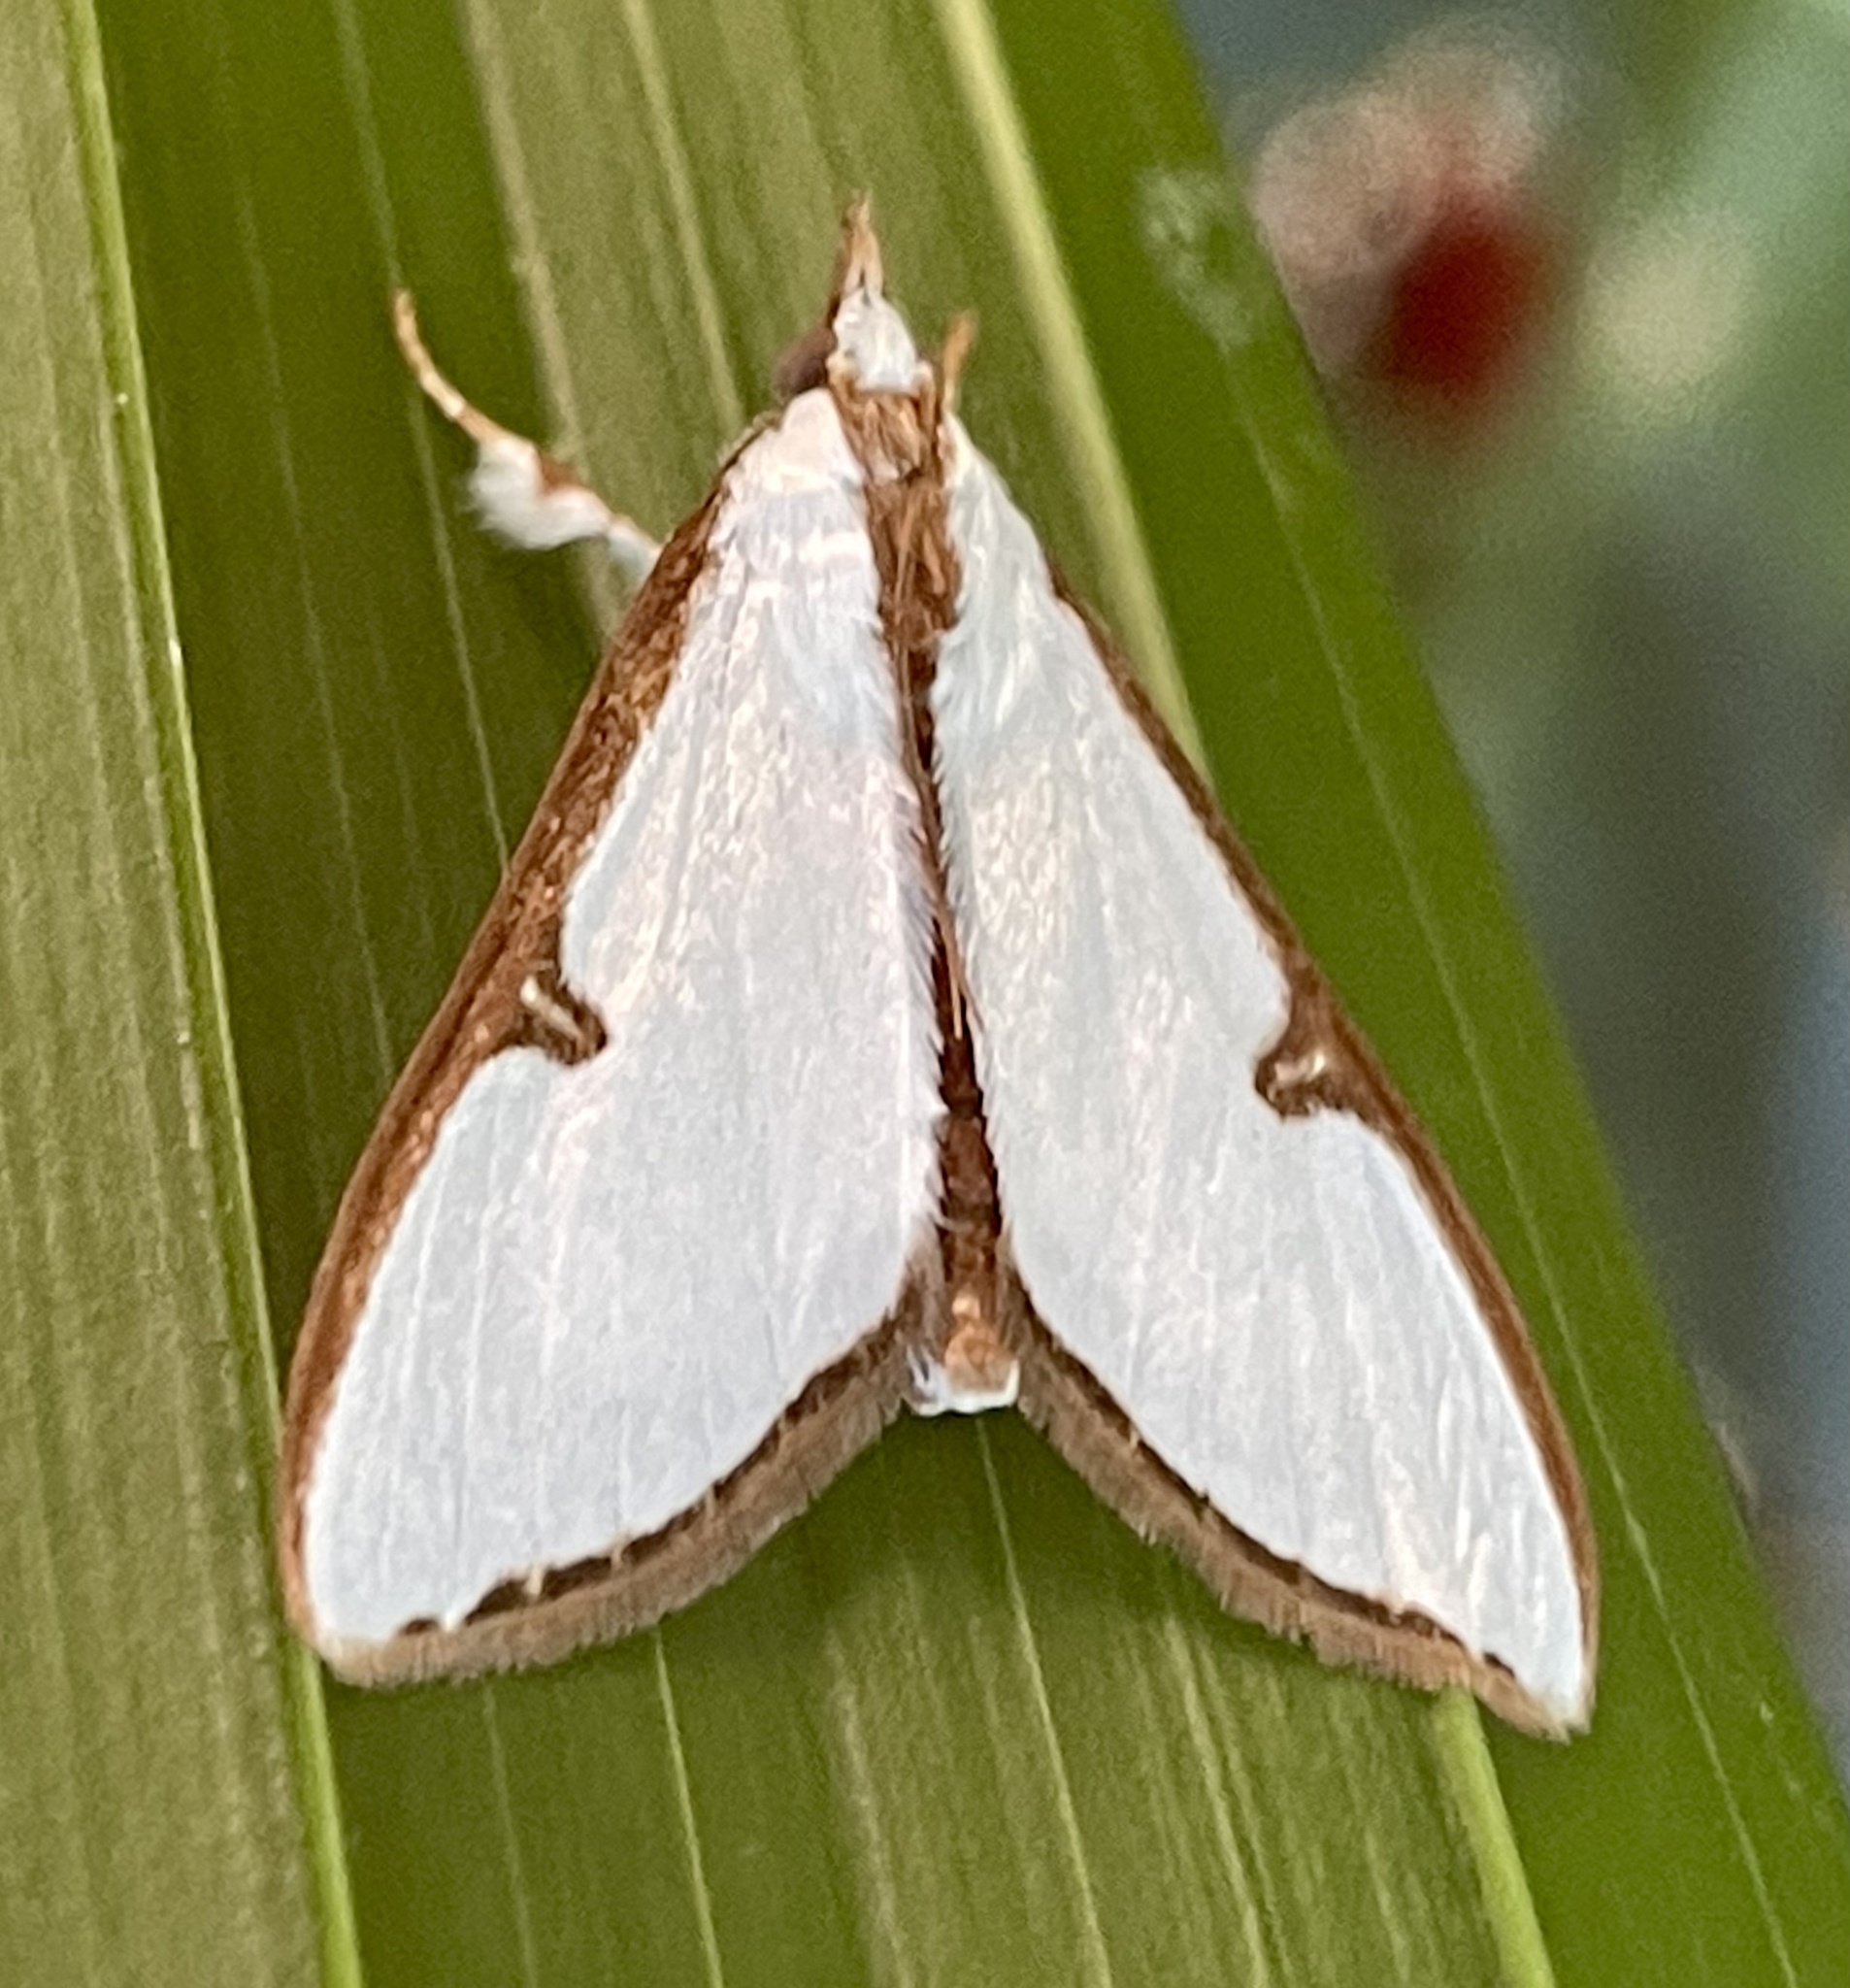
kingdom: Animalia
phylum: Arthropoda
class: Insecta
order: Lepidoptera
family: Crambidae
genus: Cirrhochrista
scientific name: Cirrhochrista arcusalis
